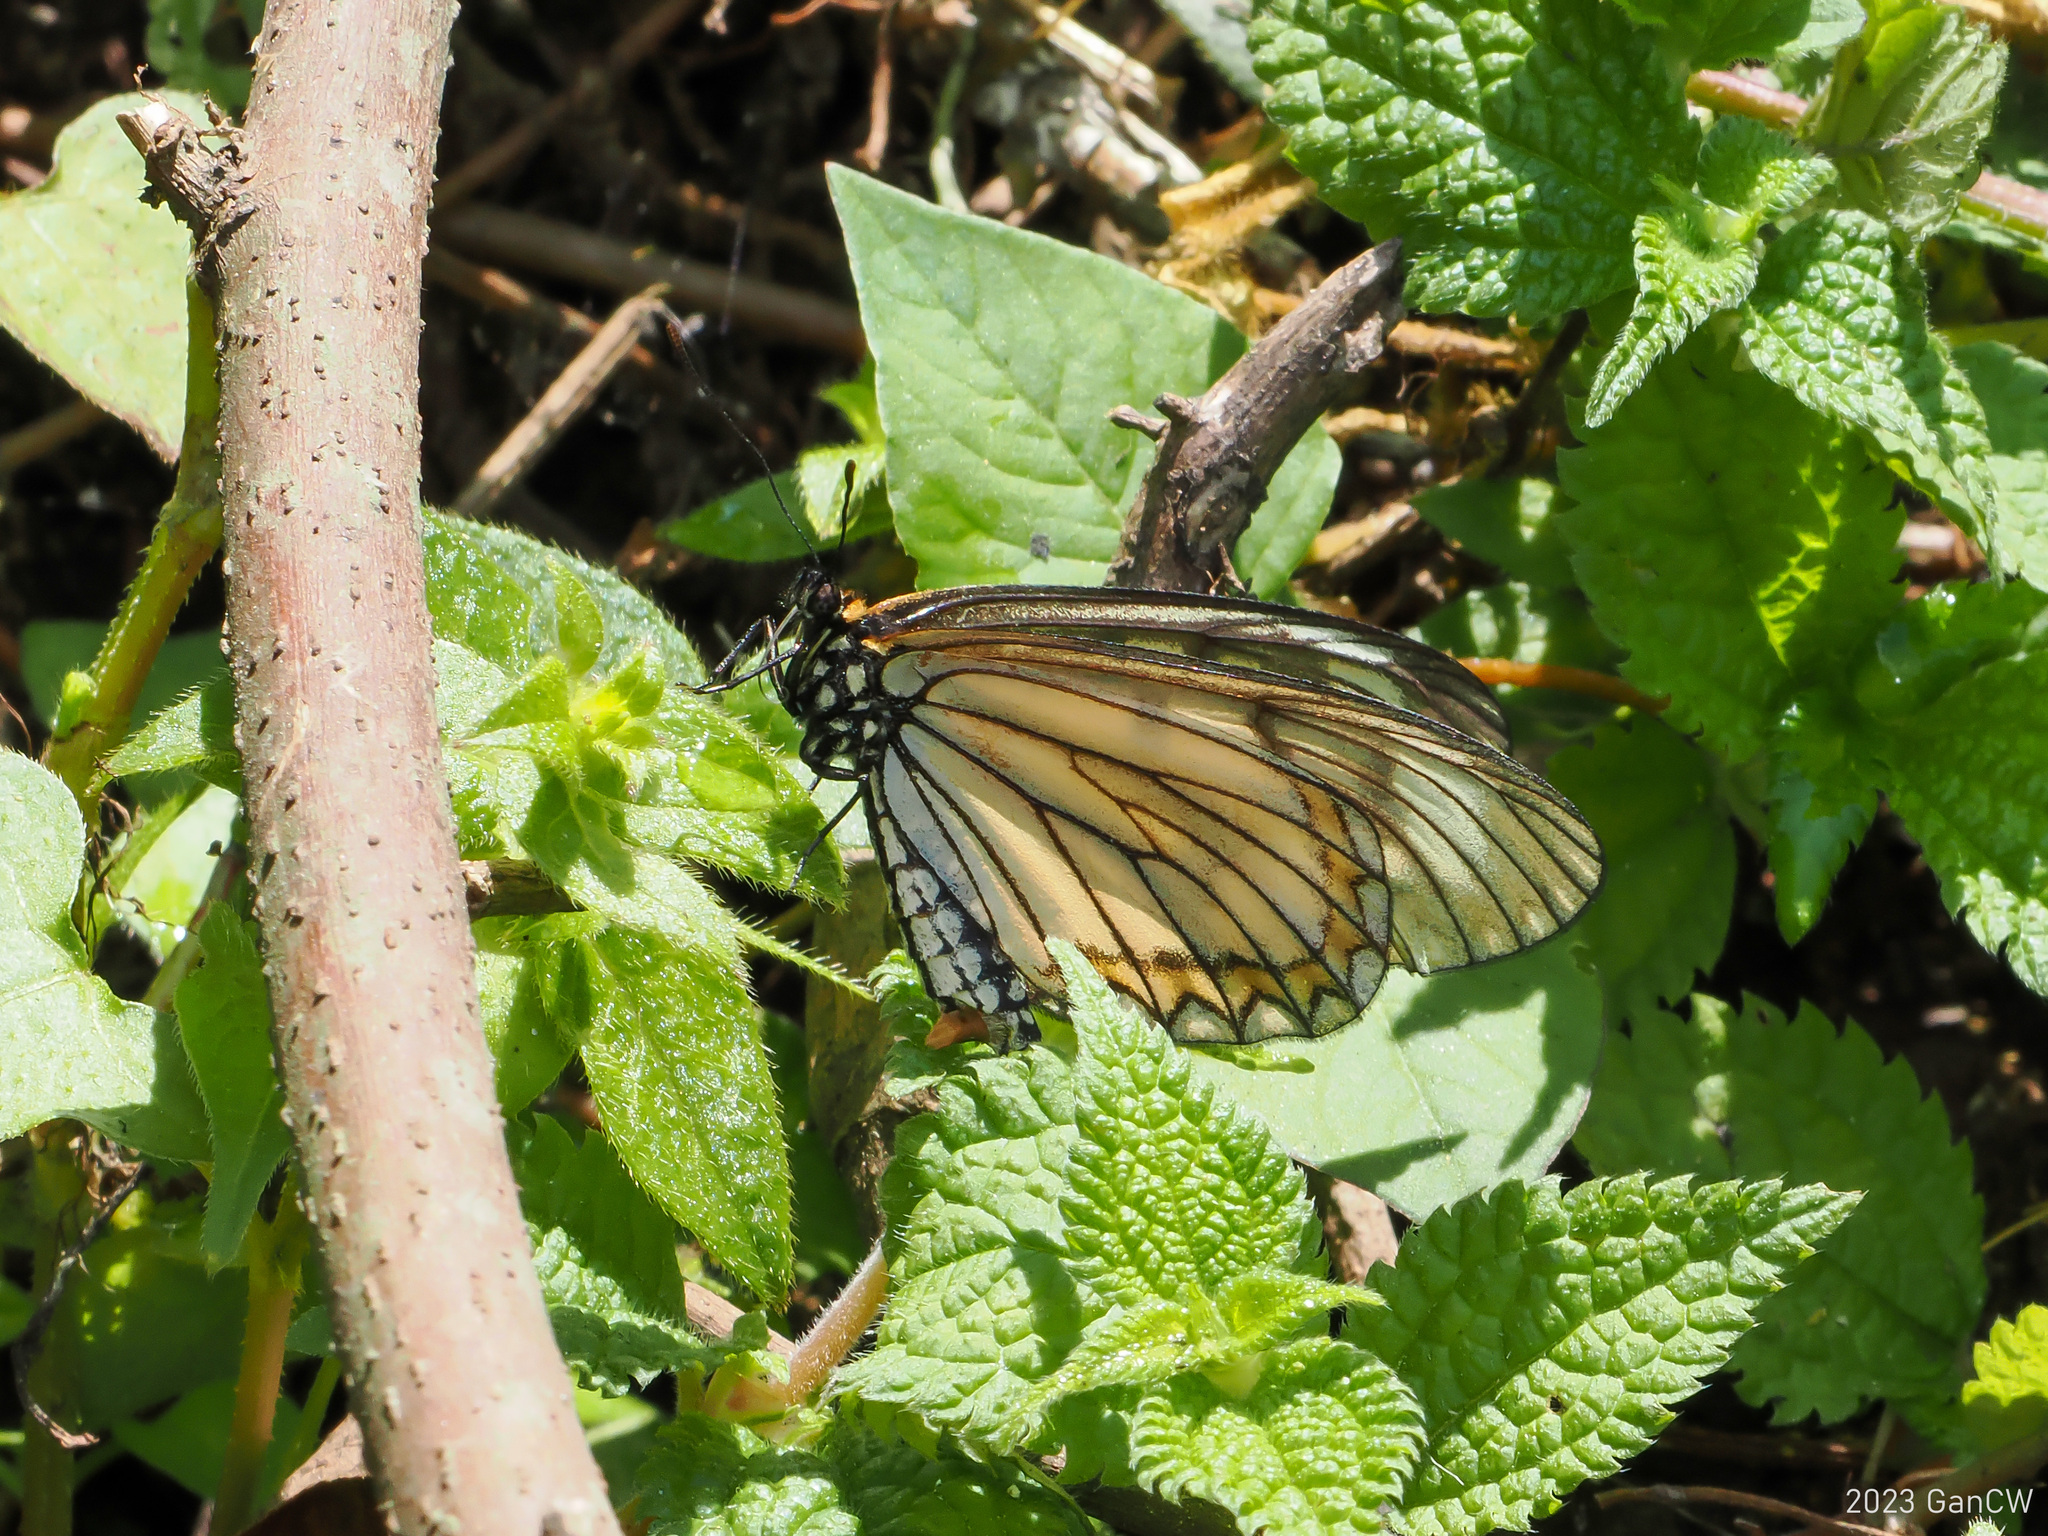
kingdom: Animalia
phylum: Arthropoda
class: Insecta
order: Lepidoptera
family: Nymphalidae
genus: Acraea
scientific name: Acraea Telchinia issoria
